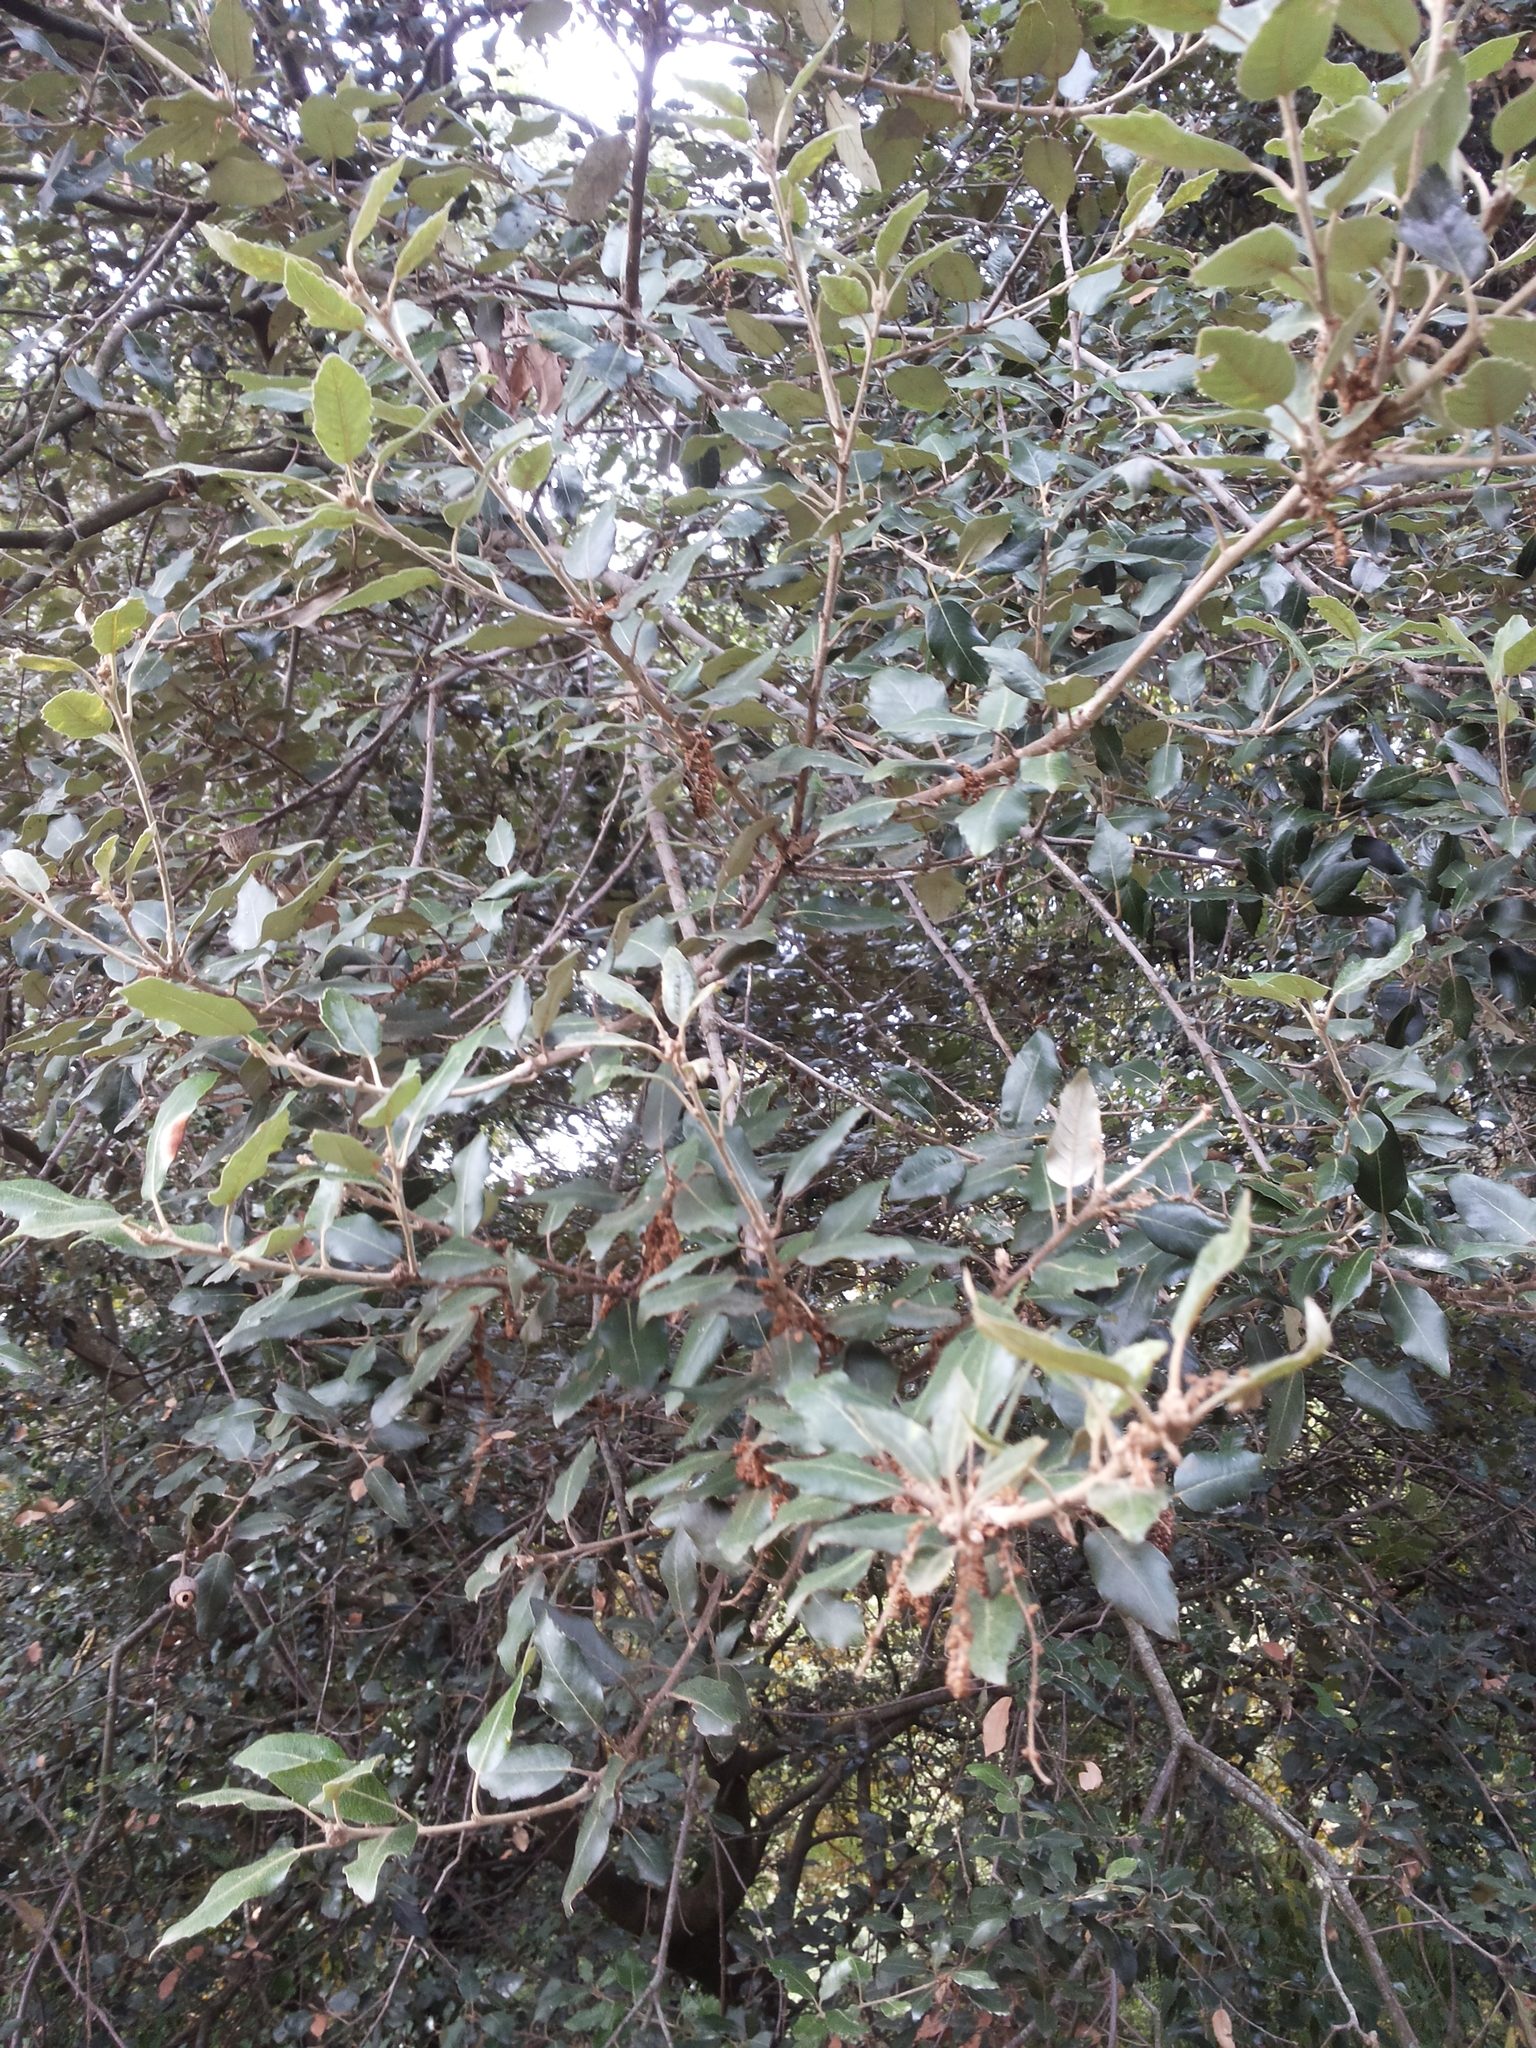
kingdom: Plantae
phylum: Tracheophyta
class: Magnoliopsida
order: Fagales
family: Fagaceae
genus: Quercus
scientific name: Quercus ilex
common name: Evergreen oak
